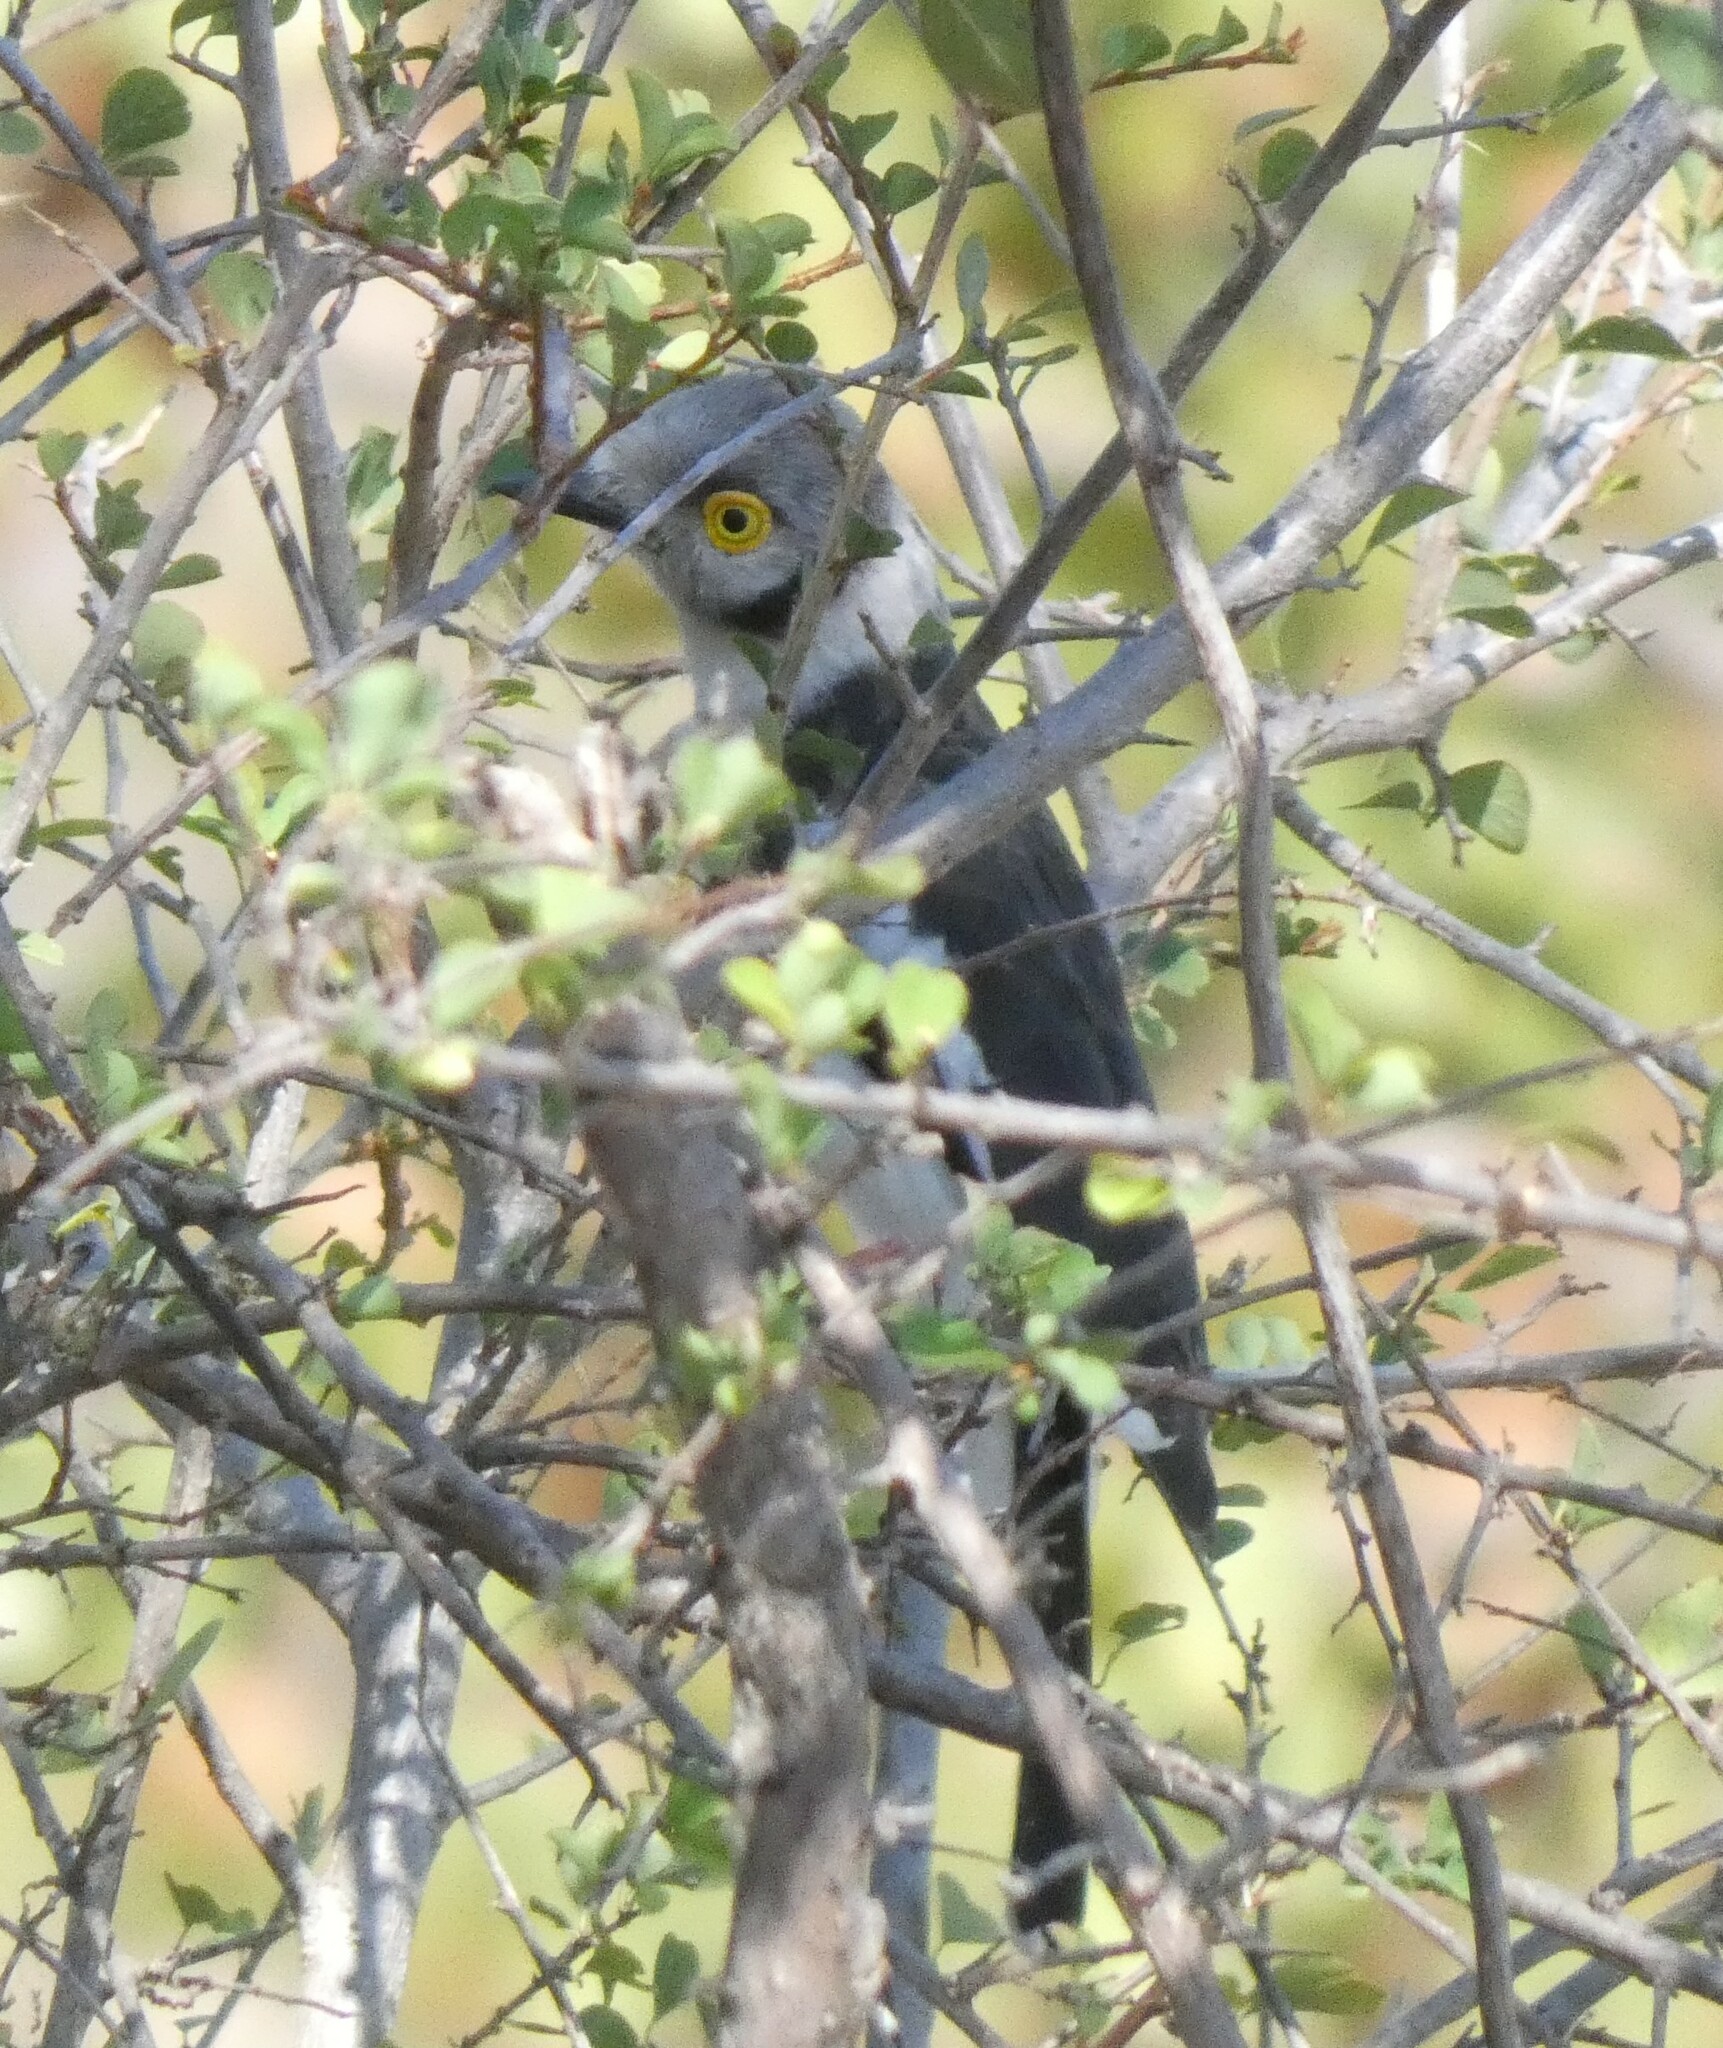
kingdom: Animalia
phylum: Chordata
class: Aves
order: Passeriformes
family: Prionopidae
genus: Prionops
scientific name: Prionops plumatus
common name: White-crested helmetshrike
